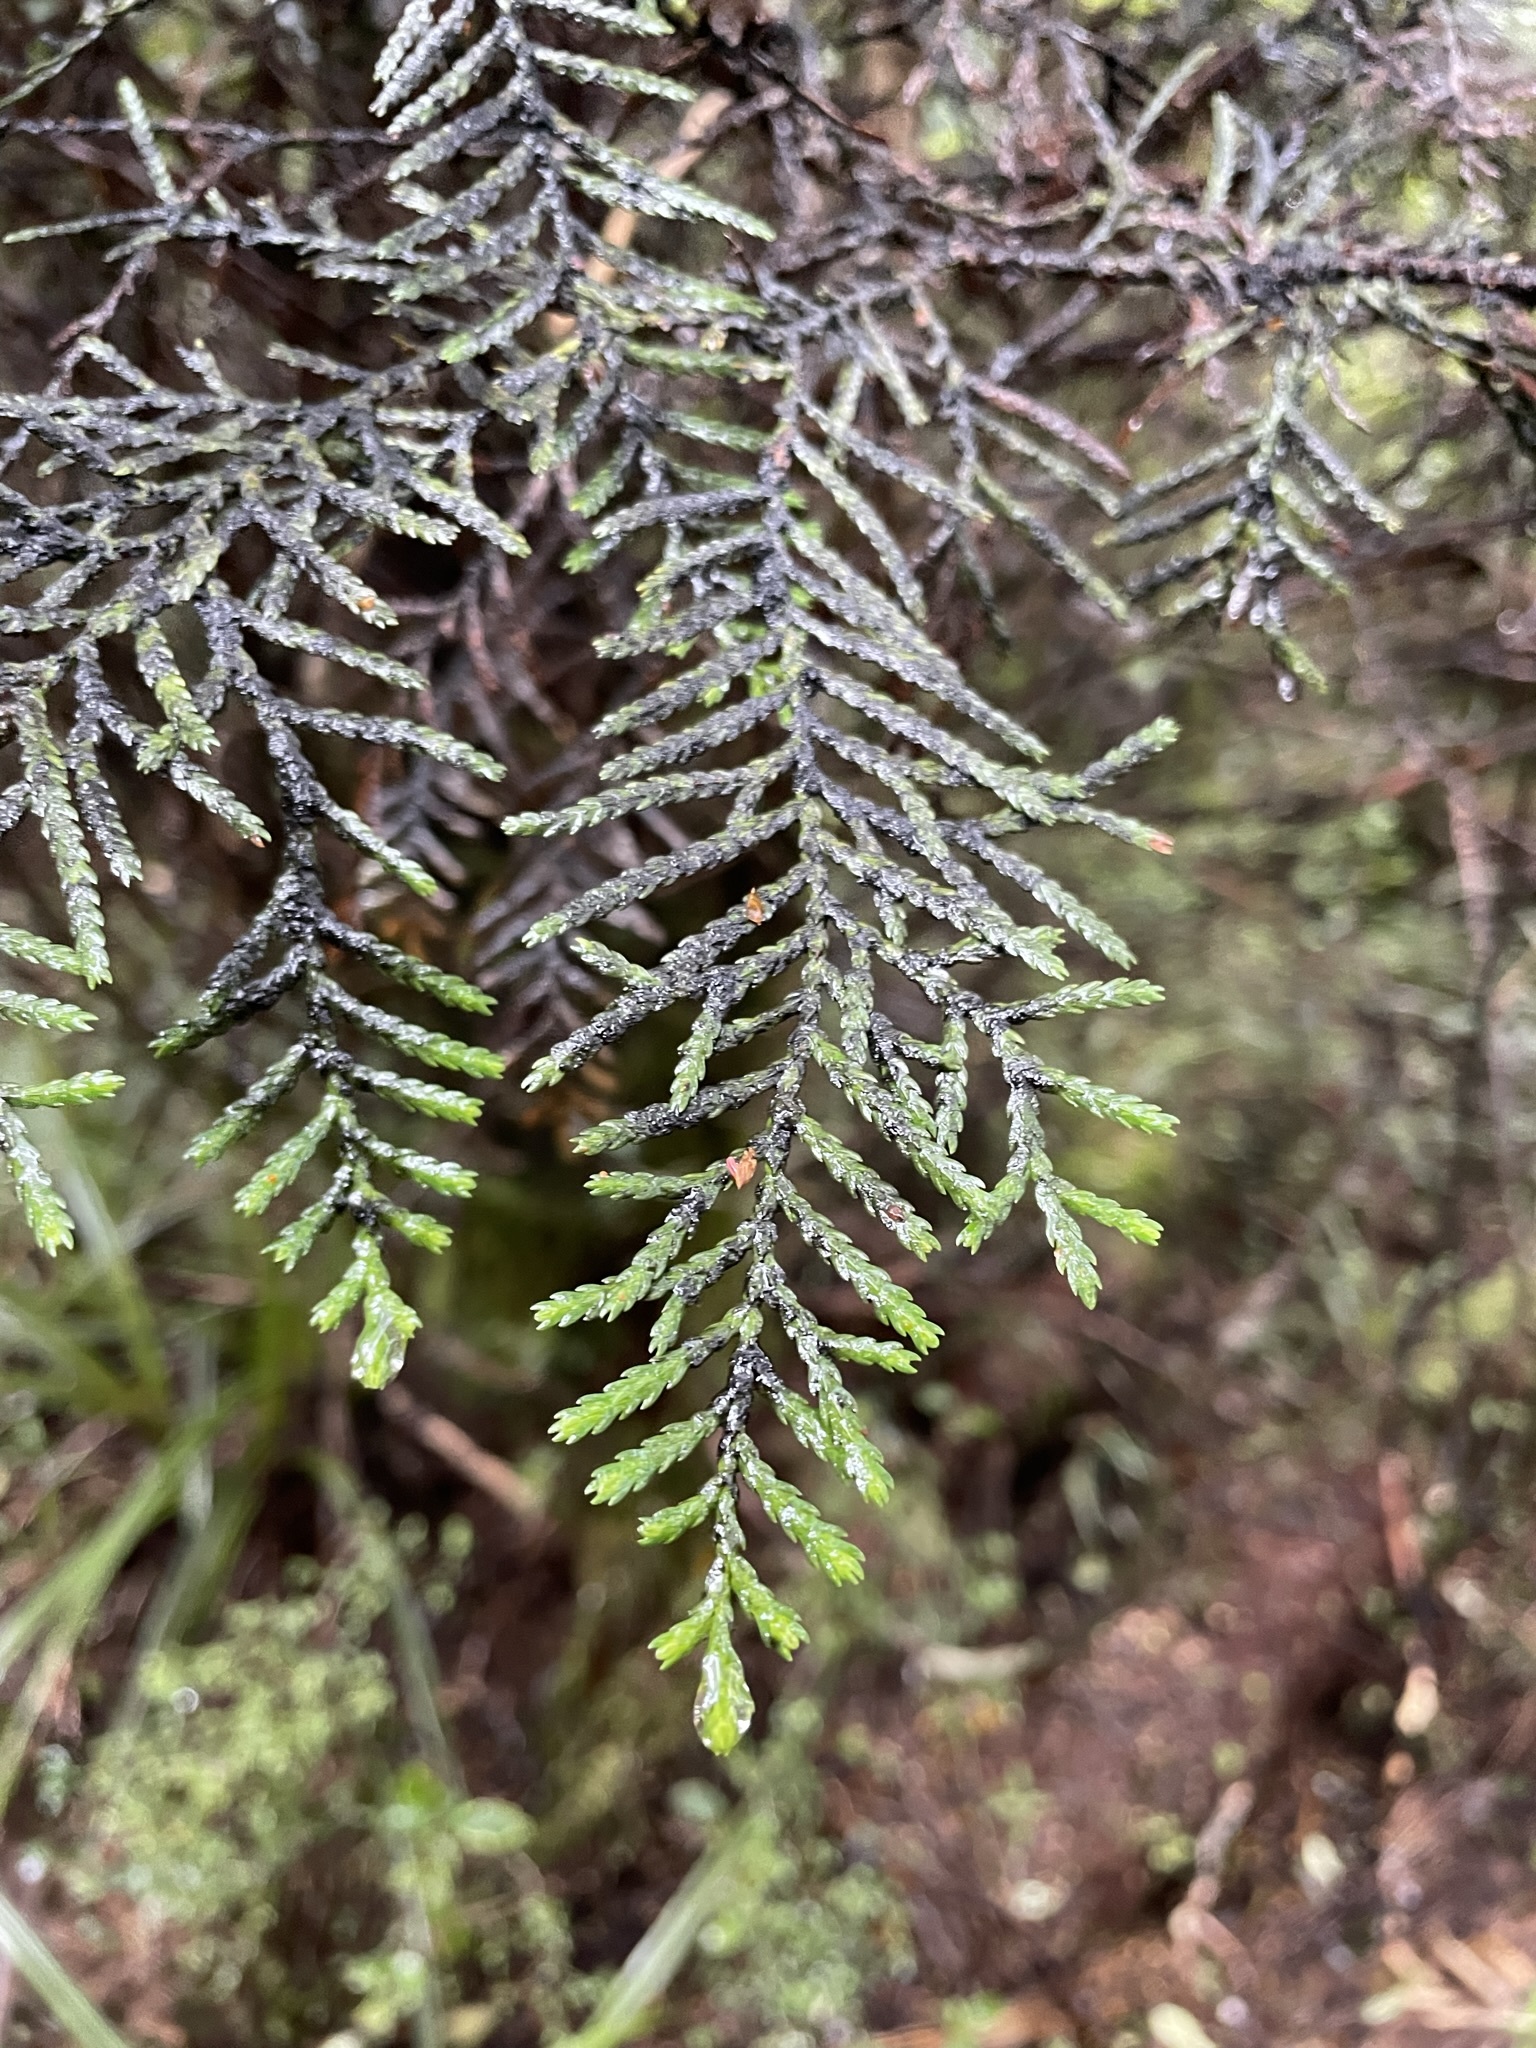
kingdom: Plantae
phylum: Tracheophyta
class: Pinopsida
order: Pinales
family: Cupressaceae
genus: Libocedrus
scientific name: Libocedrus bidwillii
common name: Cedar
